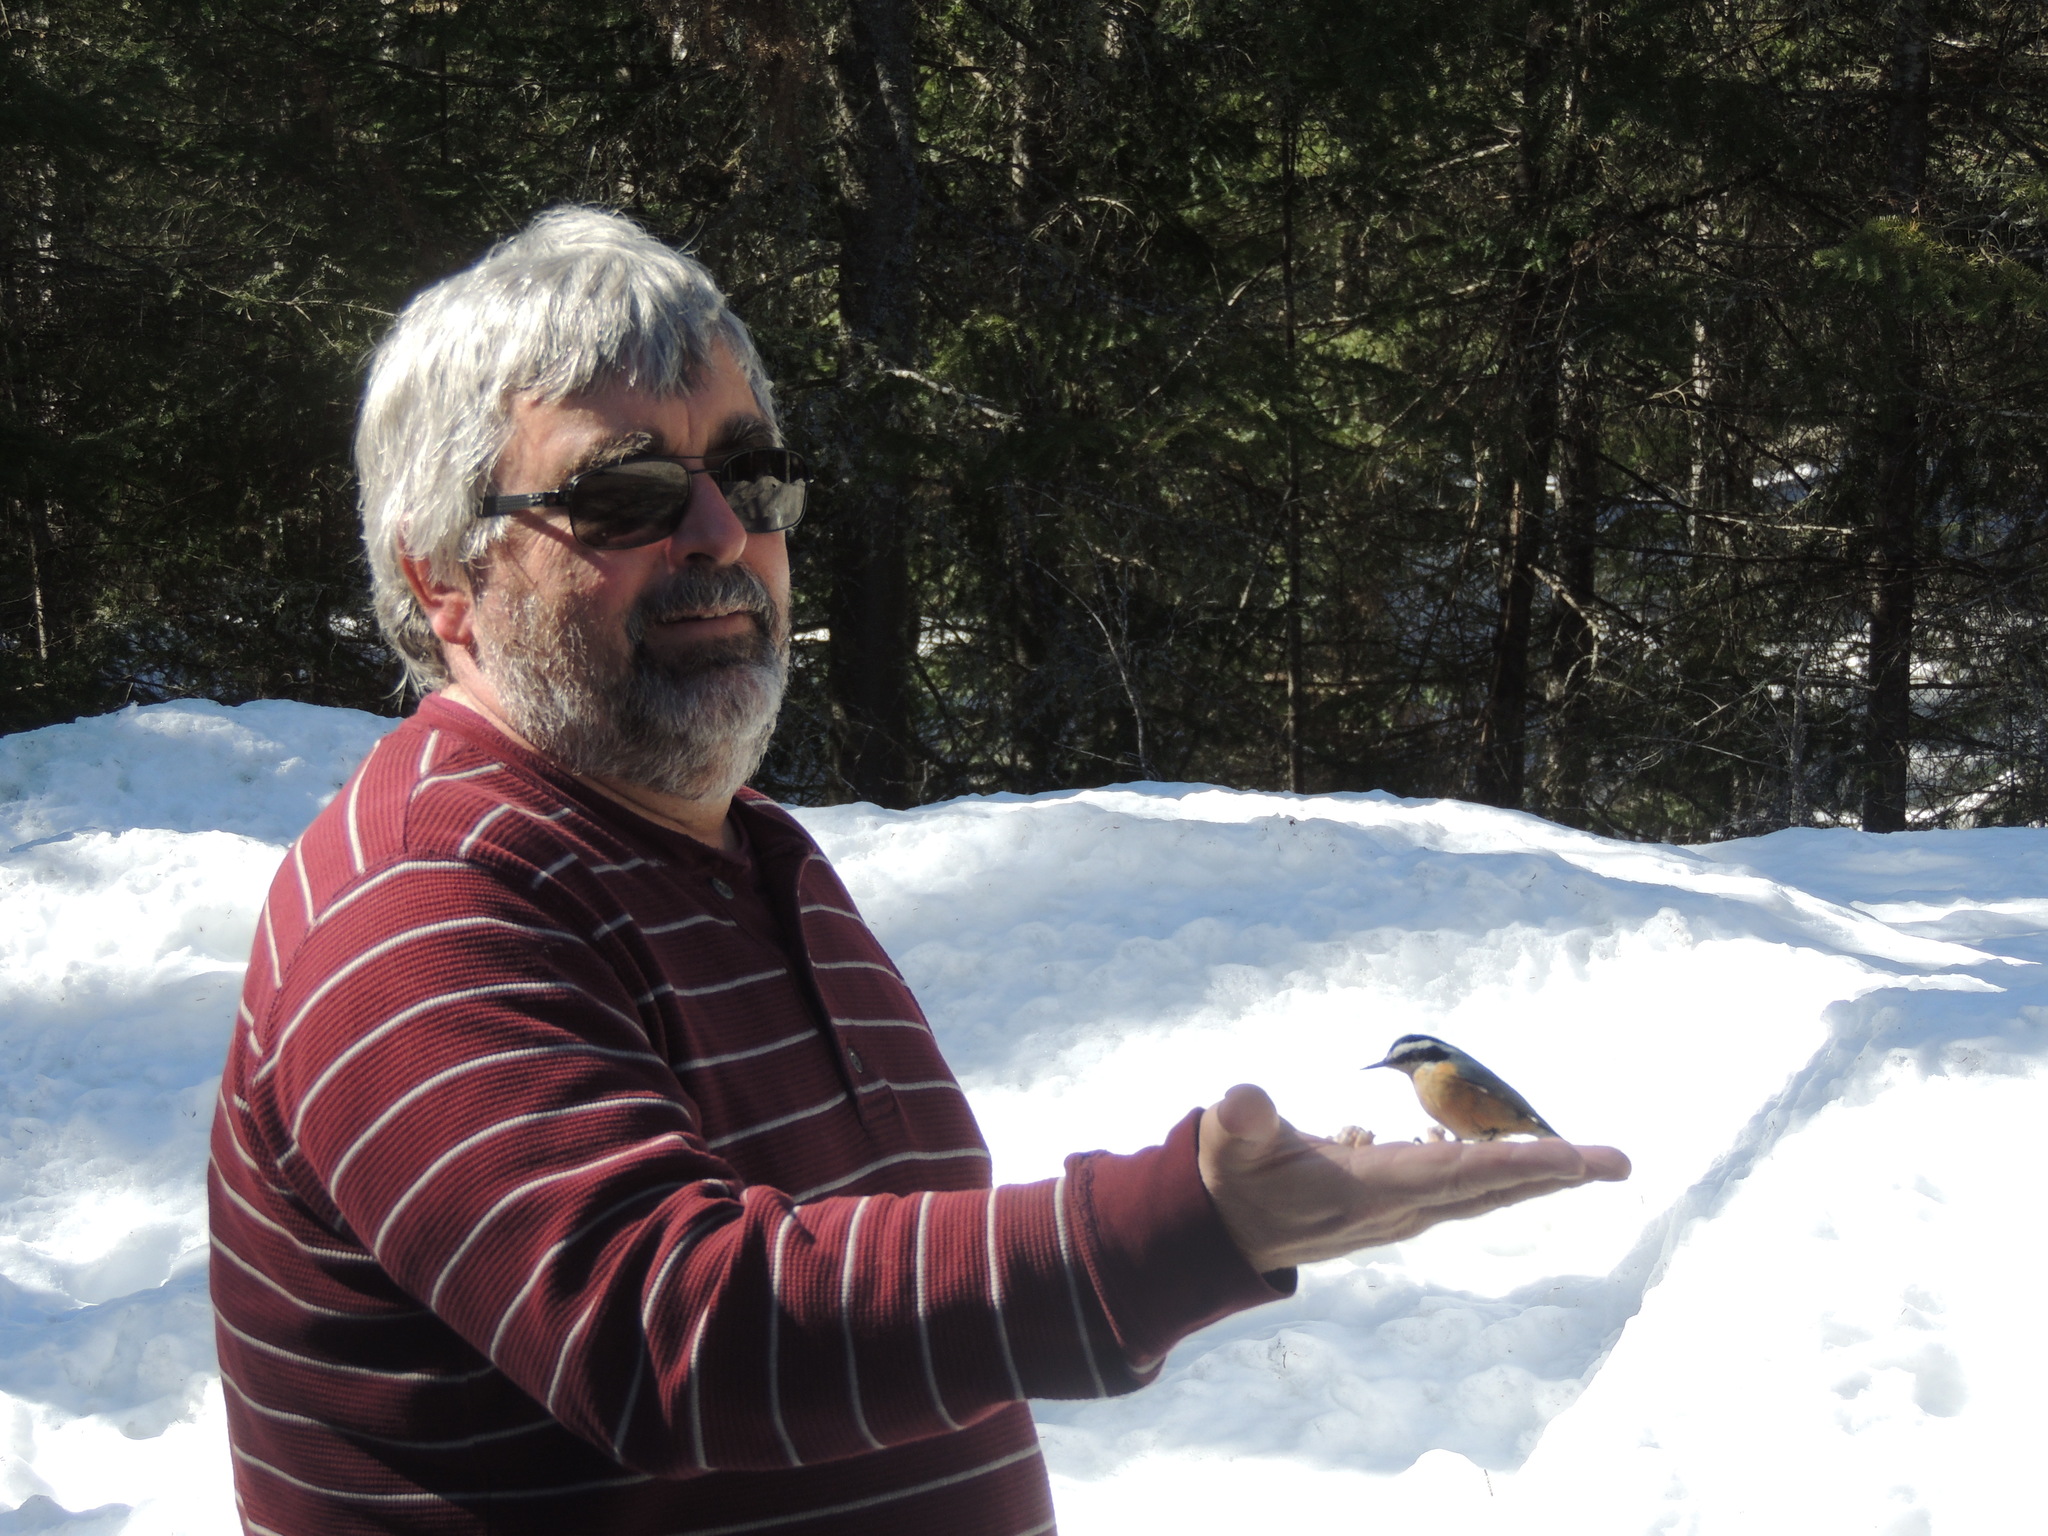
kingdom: Animalia
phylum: Chordata
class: Aves
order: Passeriformes
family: Sittidae
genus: Sitta
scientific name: Sitta canadensis
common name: Red-breasted nuthatch
